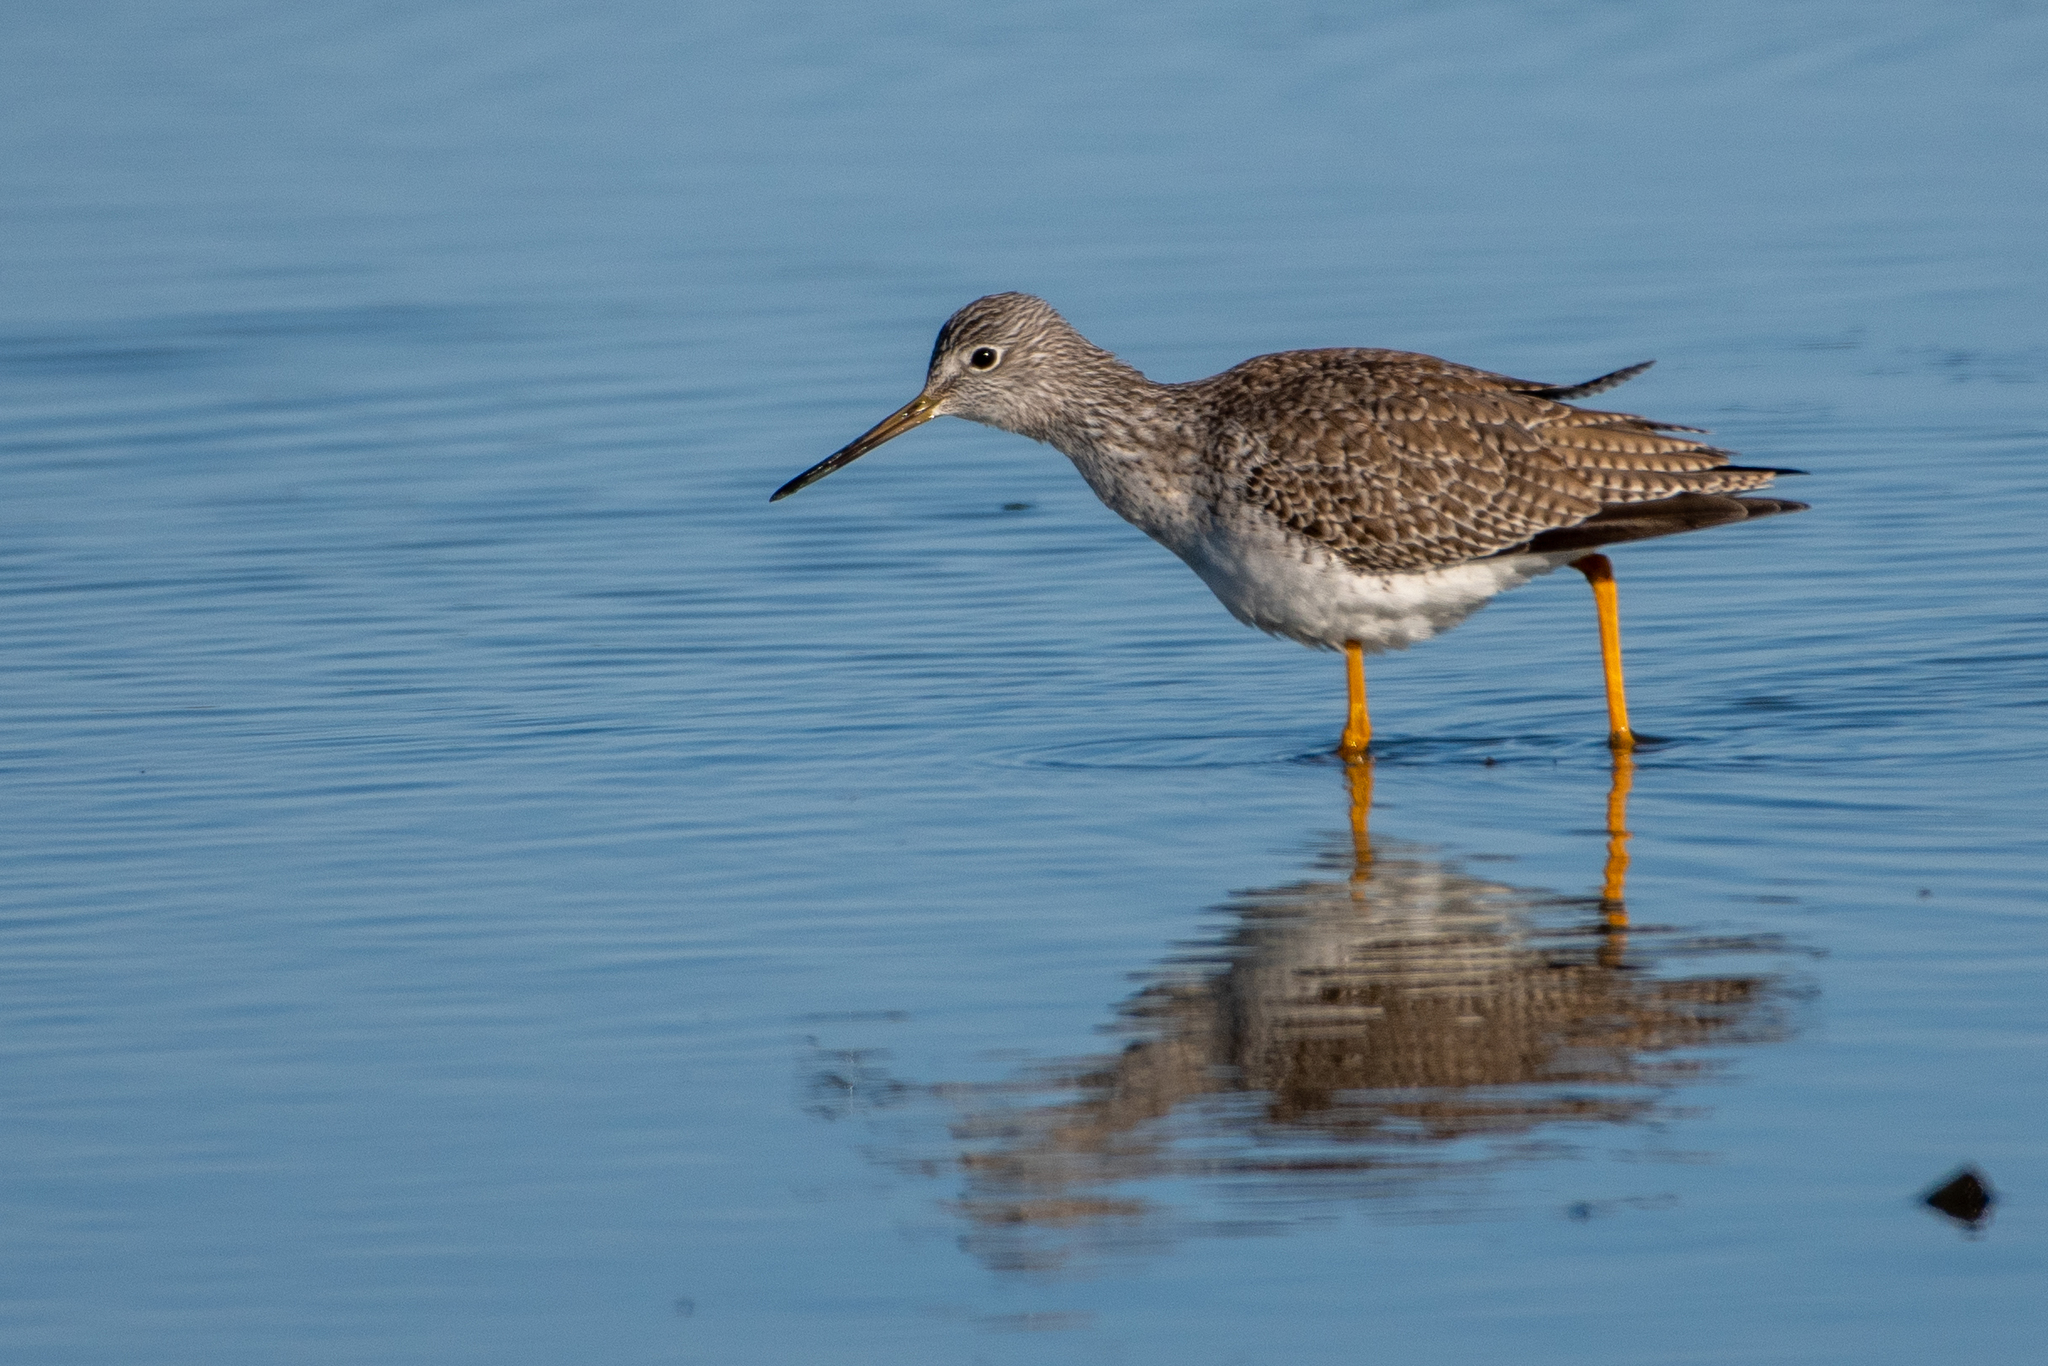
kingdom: Animalia
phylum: Chordata
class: Aves
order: Charadriiformes
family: Scolopacidae
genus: Tringa
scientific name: Tringa melanoleuca
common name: Greater yellowlegs
